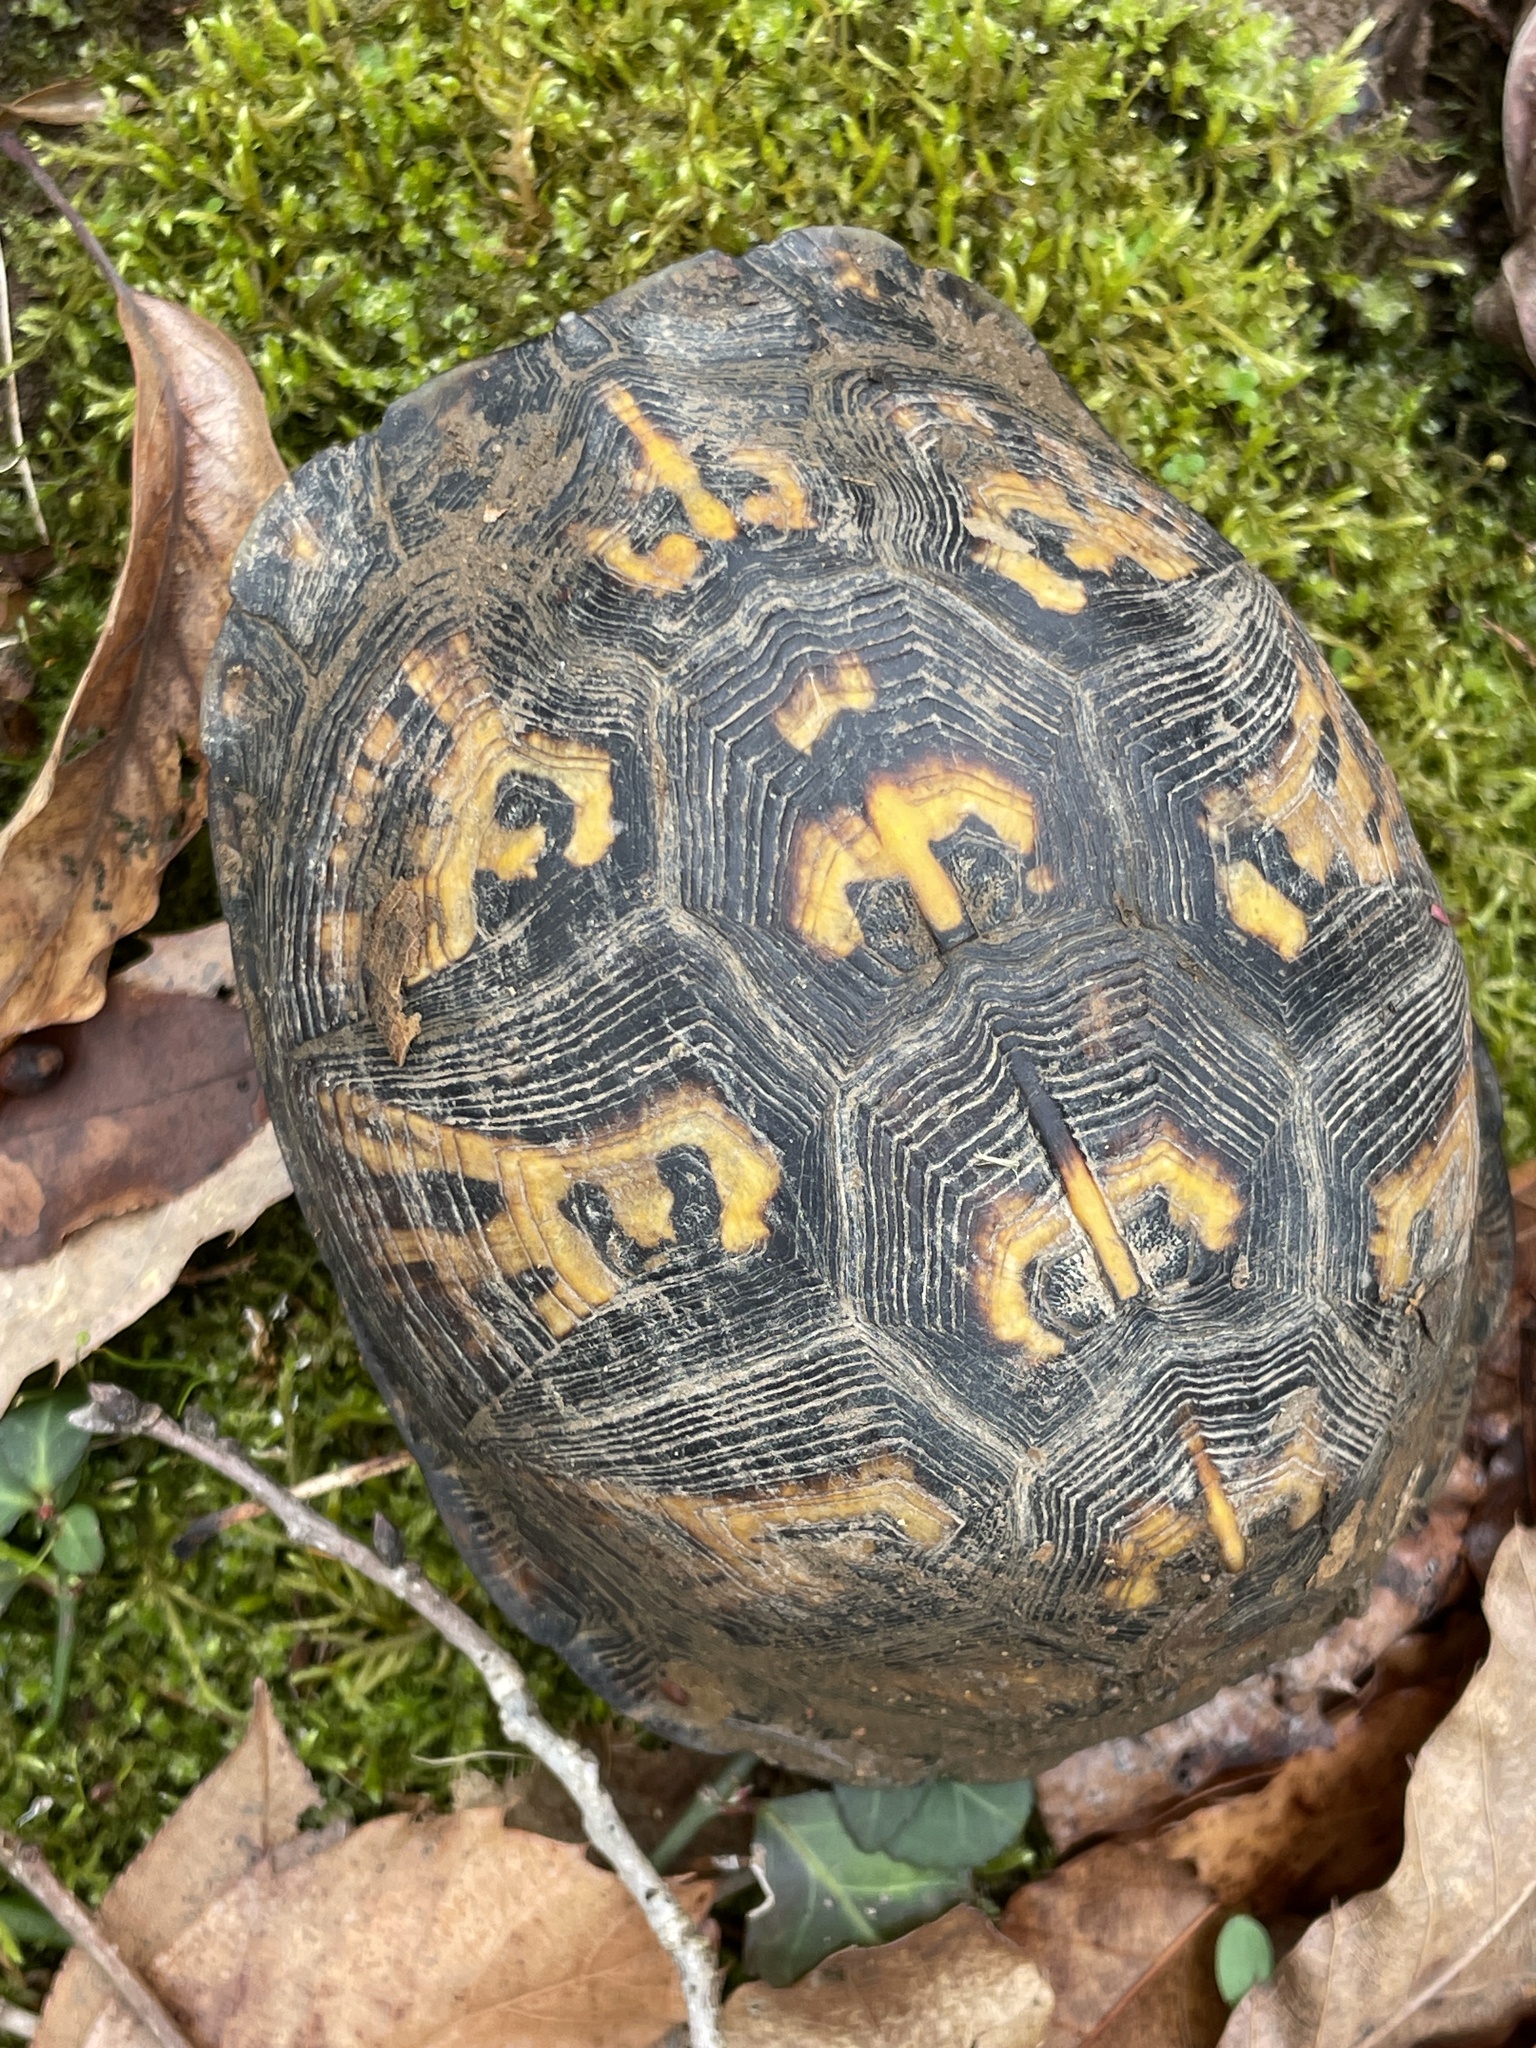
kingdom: Animalia
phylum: Chordata
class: Testudines
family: Emydidae
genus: Terrapene
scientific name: Terrapene carolina
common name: Common box turtle
